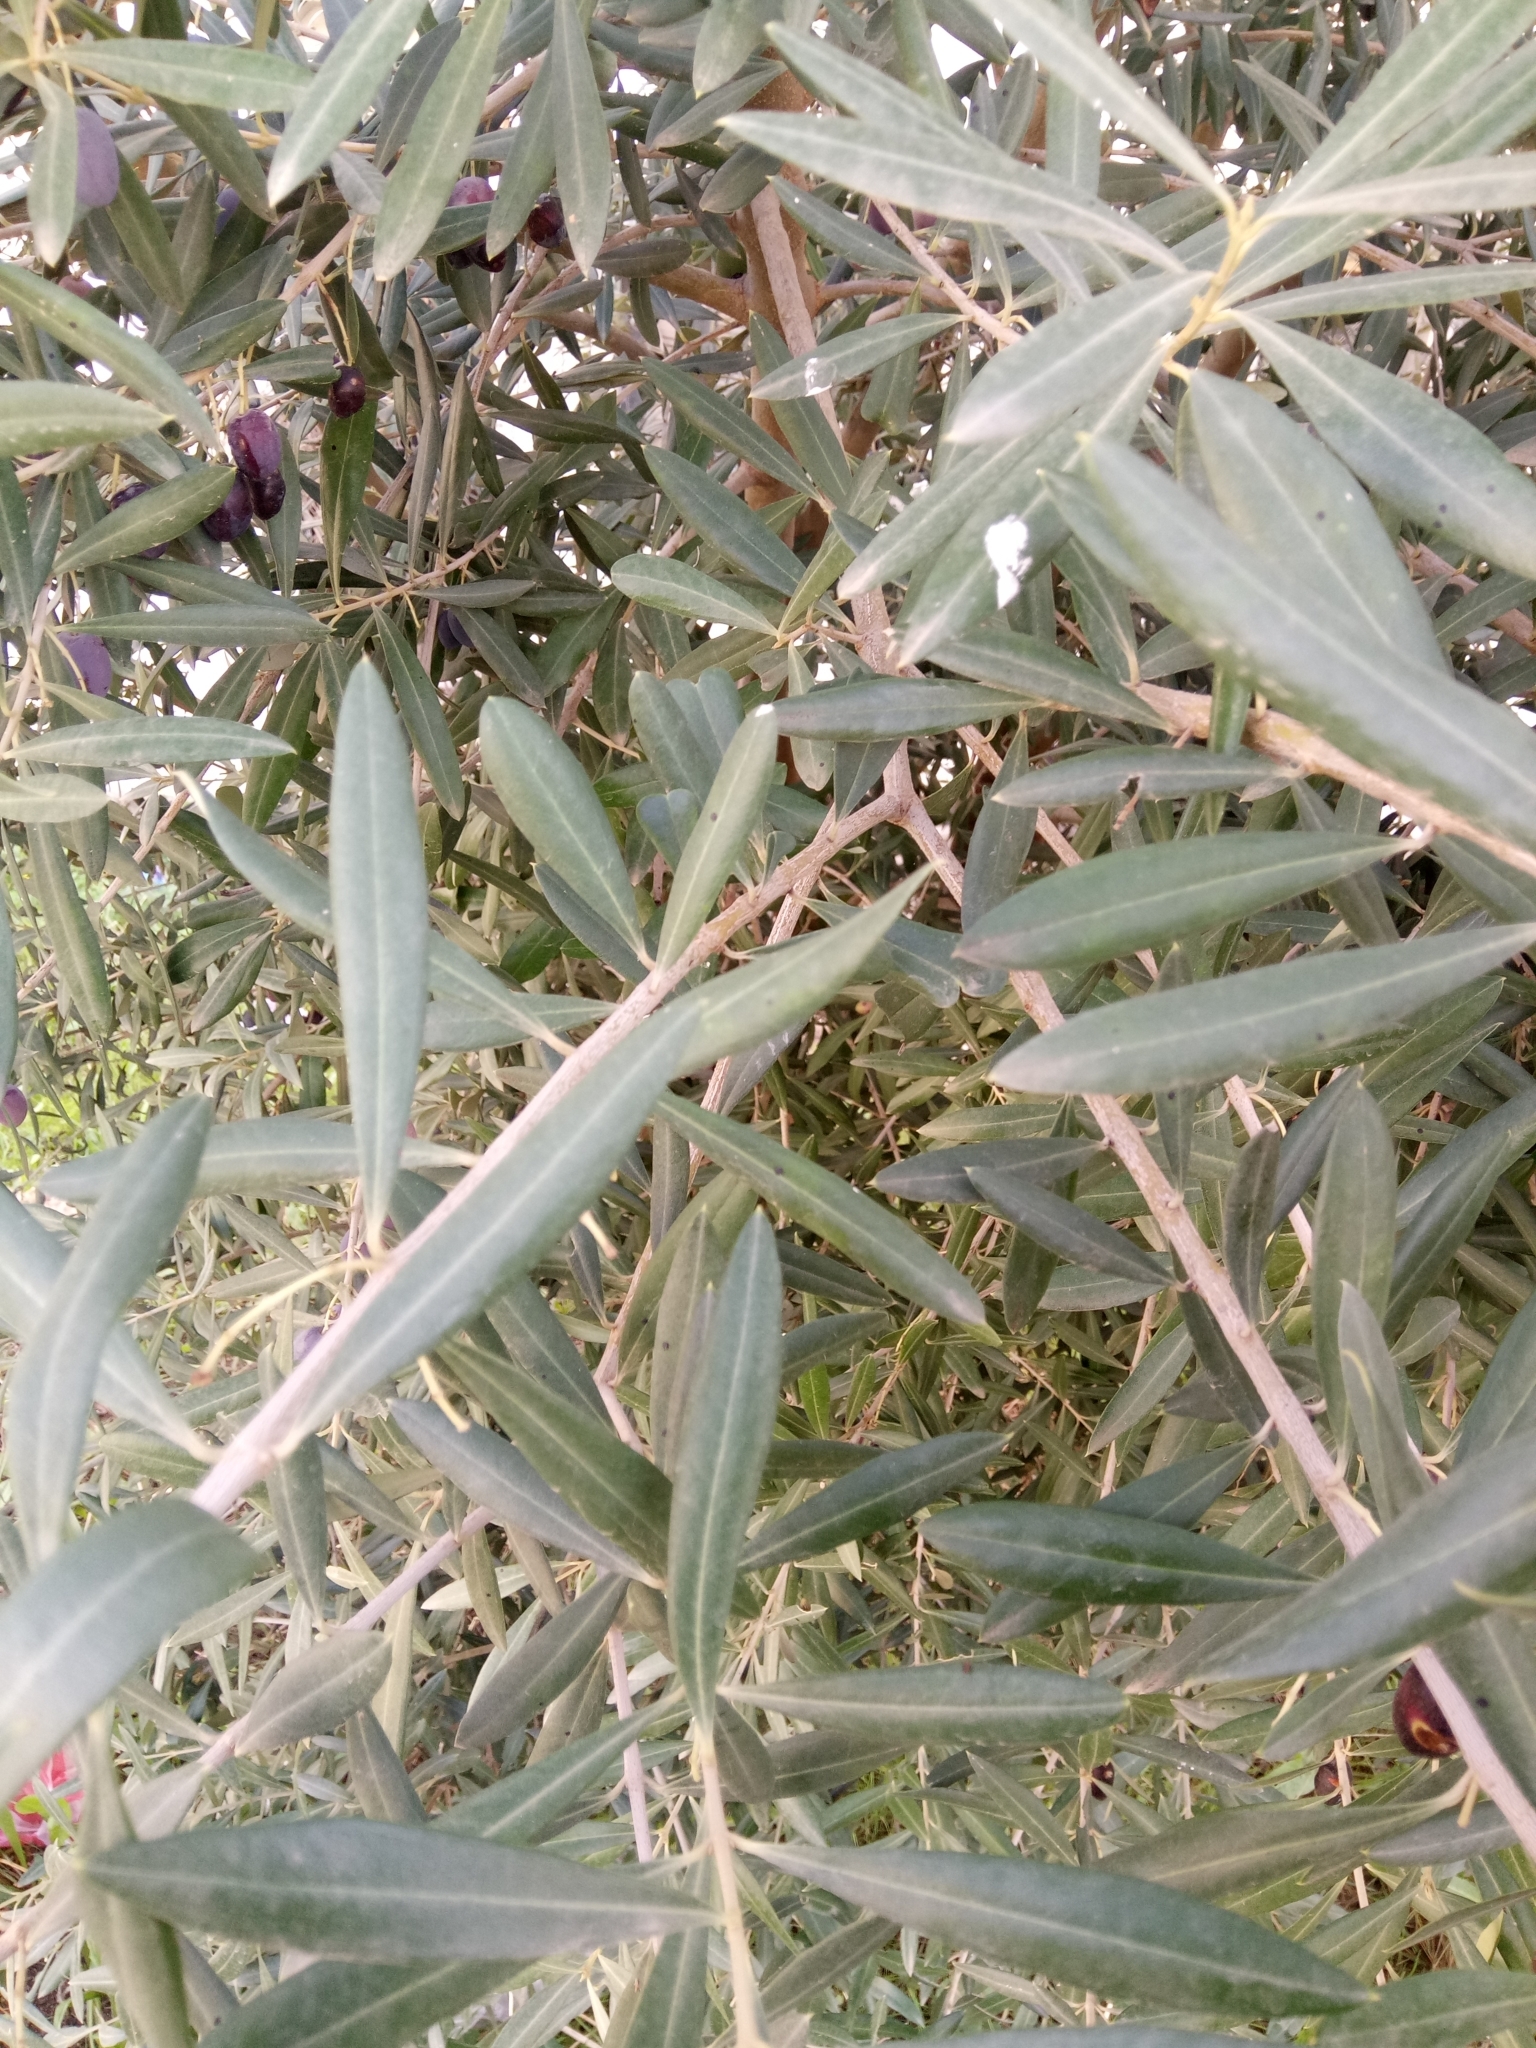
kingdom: Plantae
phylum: Tracheophyta
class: Magnoliopsida
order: Lamiales
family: Oleaceae
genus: Olea
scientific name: Olea europaea
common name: Olive
